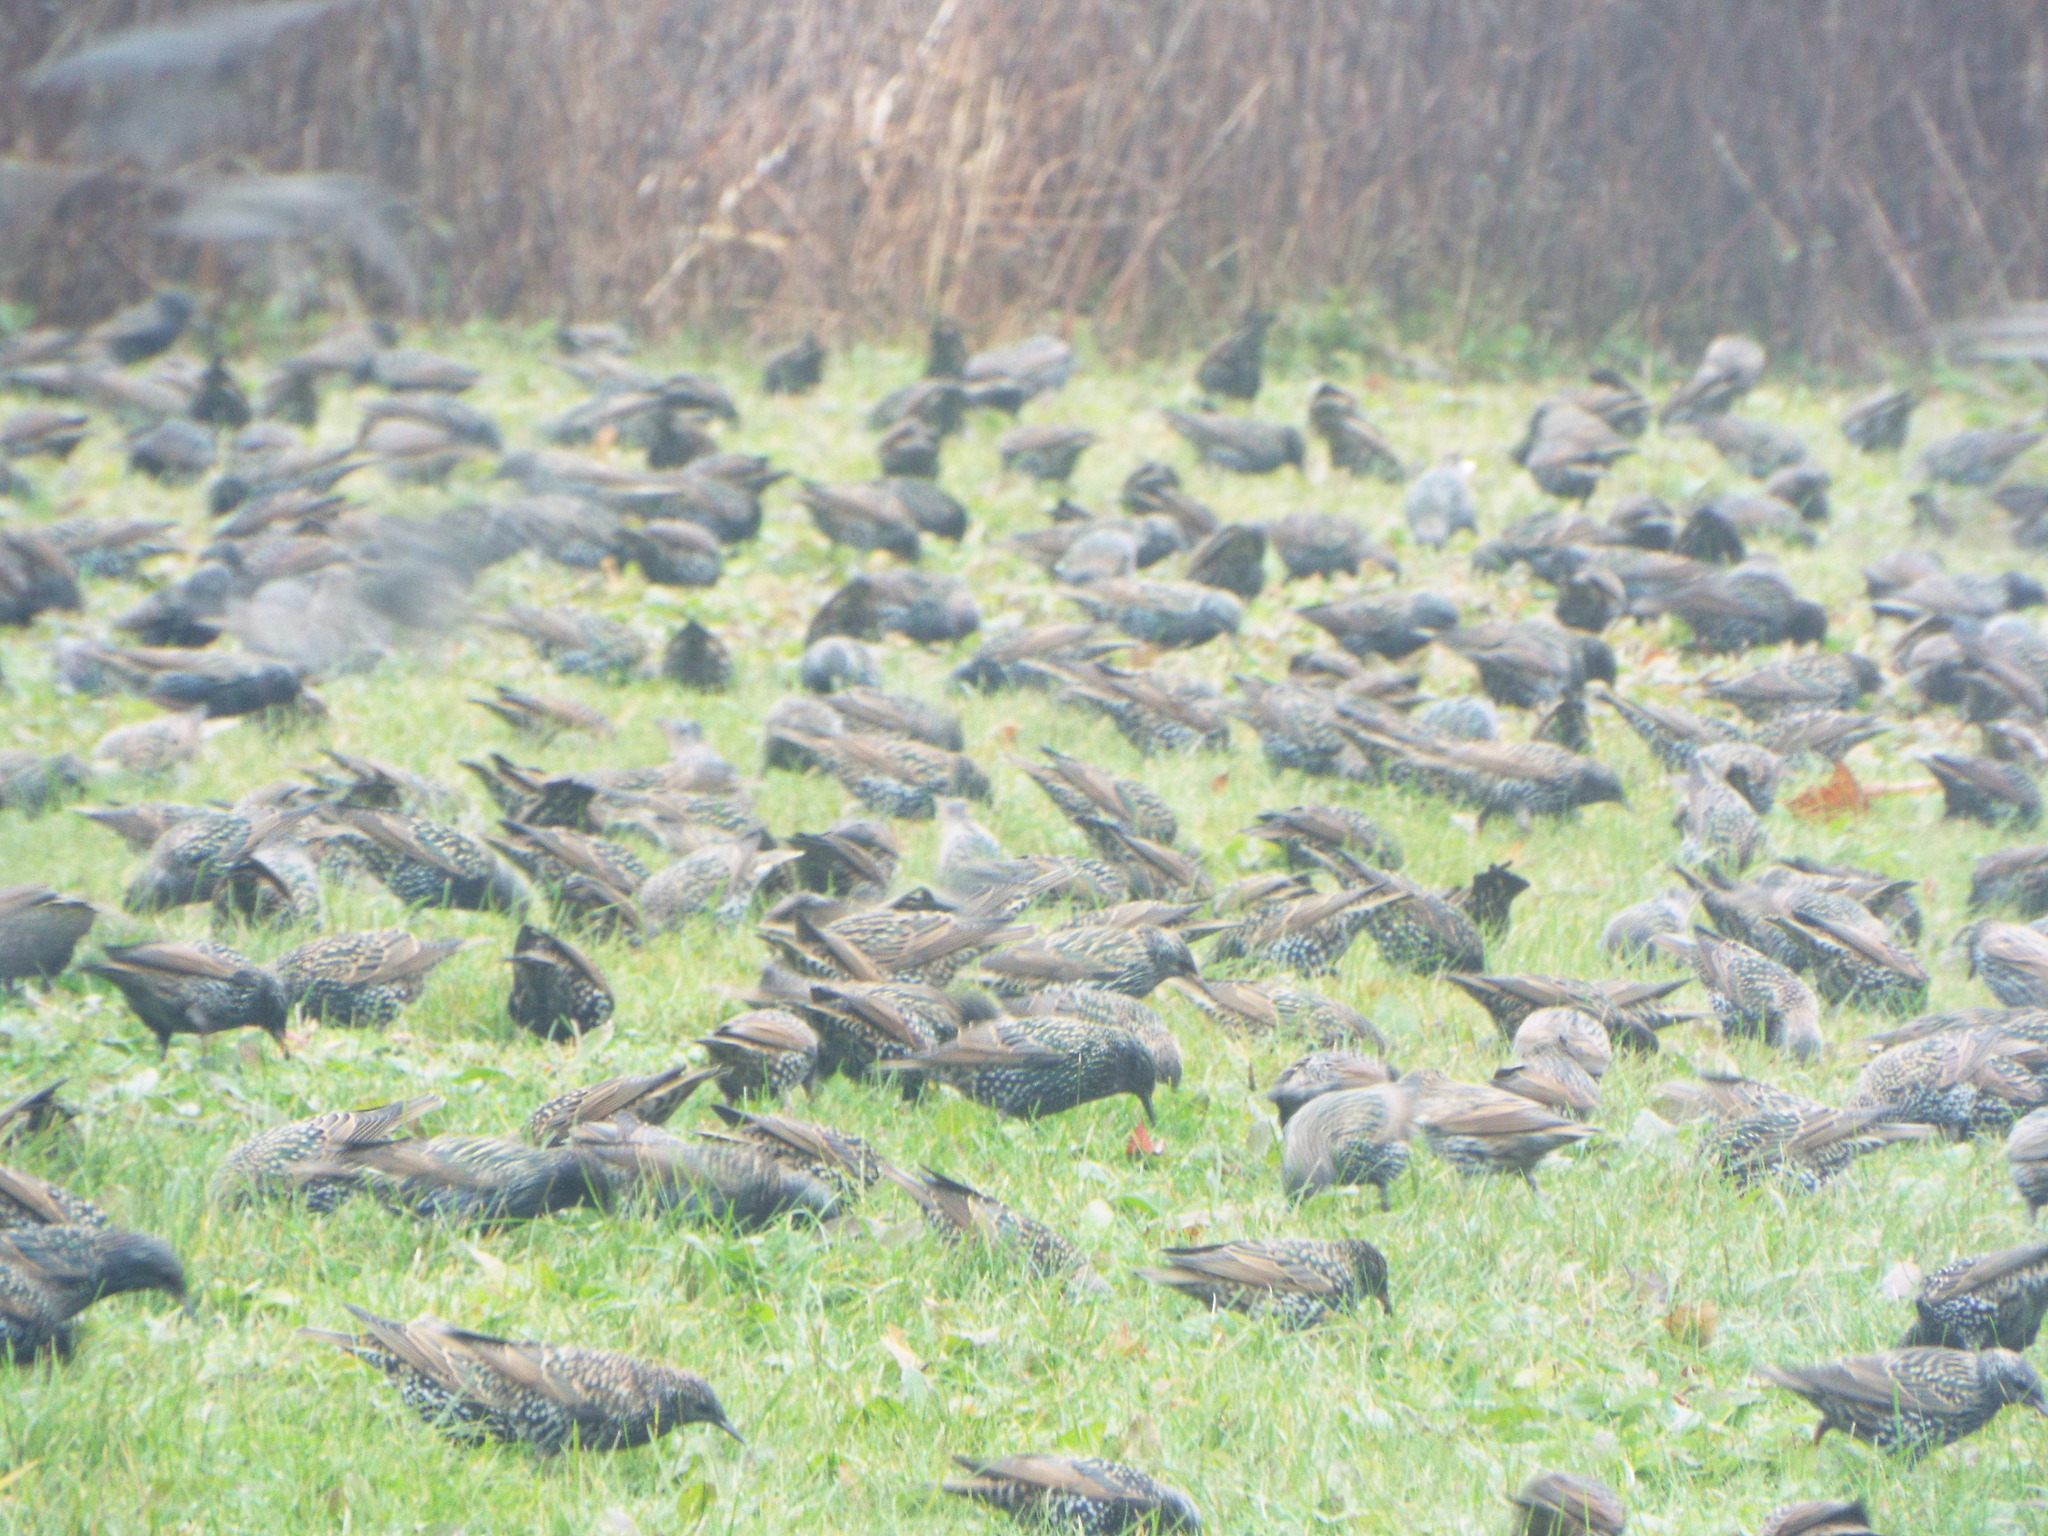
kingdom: Animalia
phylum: Chordata
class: Aves
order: Passeriformes
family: Sturnidae
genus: Sturnus
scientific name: Sturnus vulgaris
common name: Common starling
